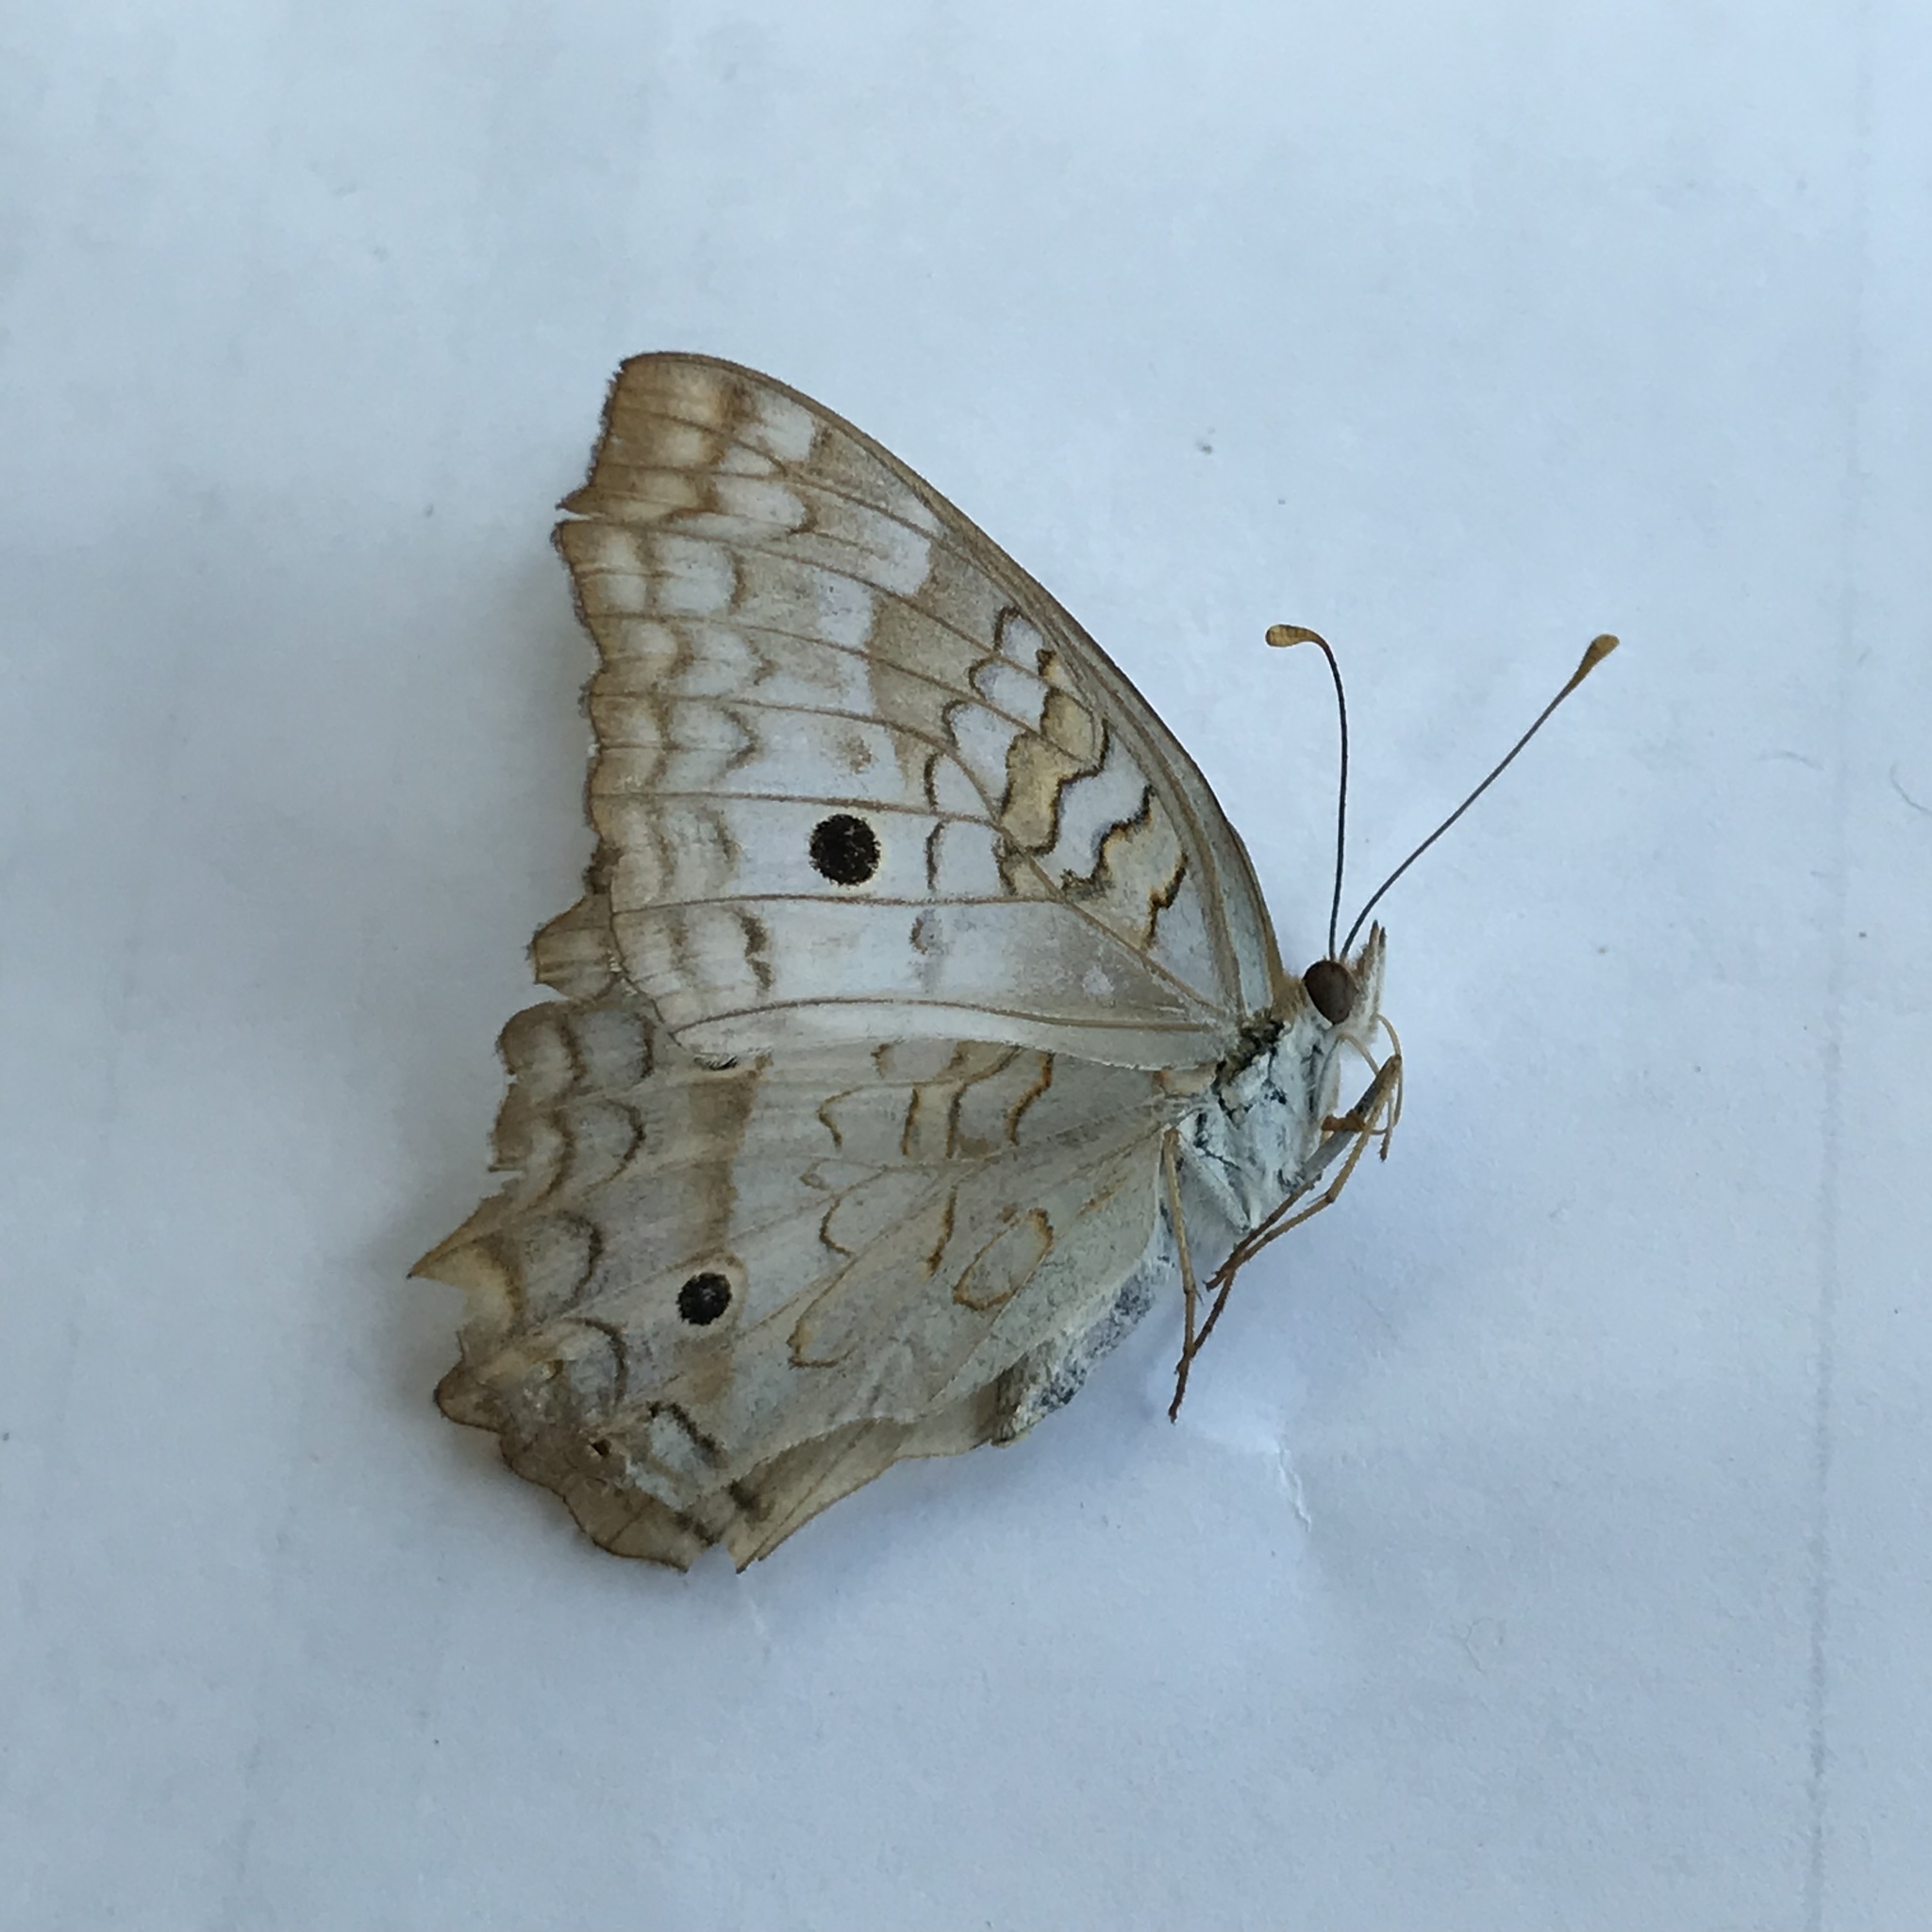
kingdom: Animalia
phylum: Arthropoda
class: Insecta
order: Lepidoptera
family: Nymphalidae
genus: Anartia
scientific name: Anartia jatrophae
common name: White peacock
